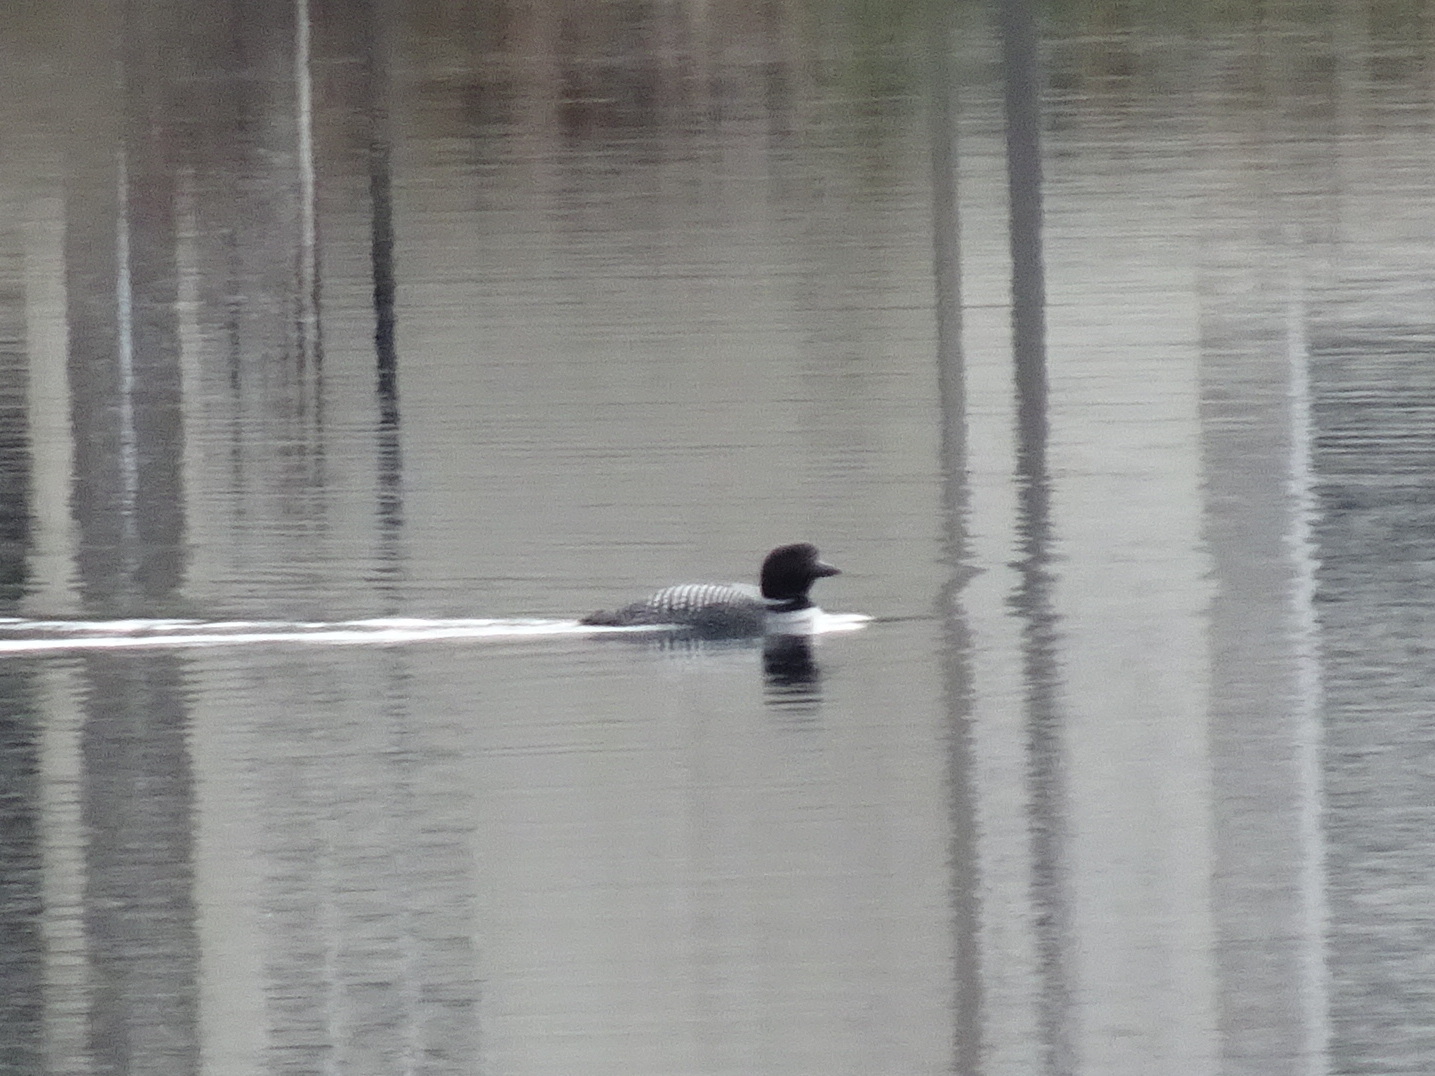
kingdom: Animalia
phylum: Chordata
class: Aves
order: Gaviiformes
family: Gaviidae
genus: Gavia
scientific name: Gavia immer
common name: Common loon
